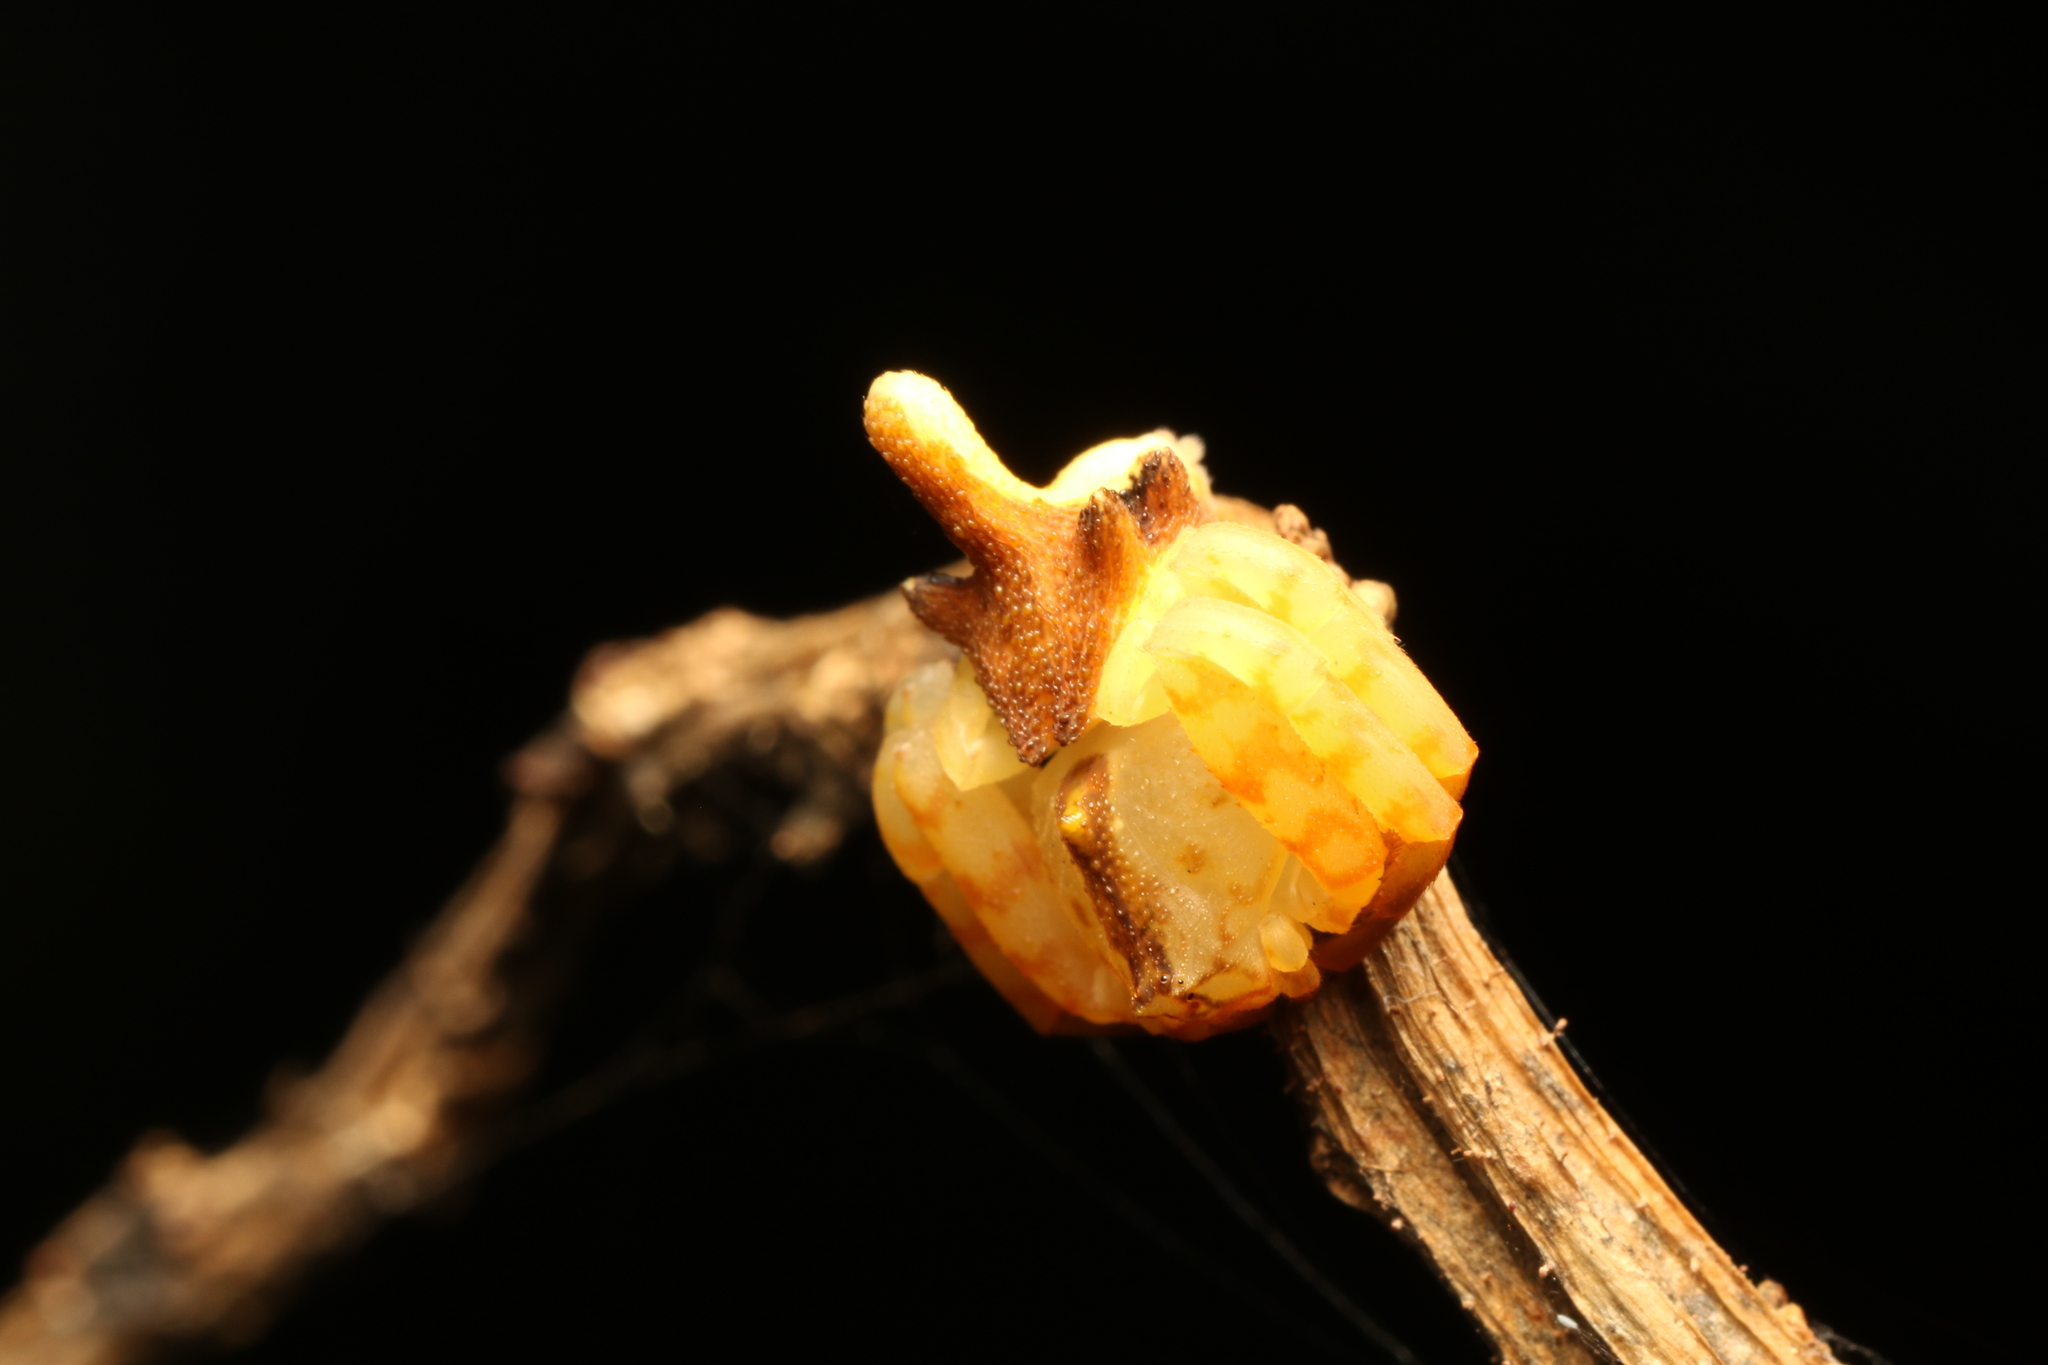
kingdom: Animalia
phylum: Arthropoda
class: Arachnida
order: Araneae
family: Thomisidae
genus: Epicadus
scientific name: Epicadus rubripes
